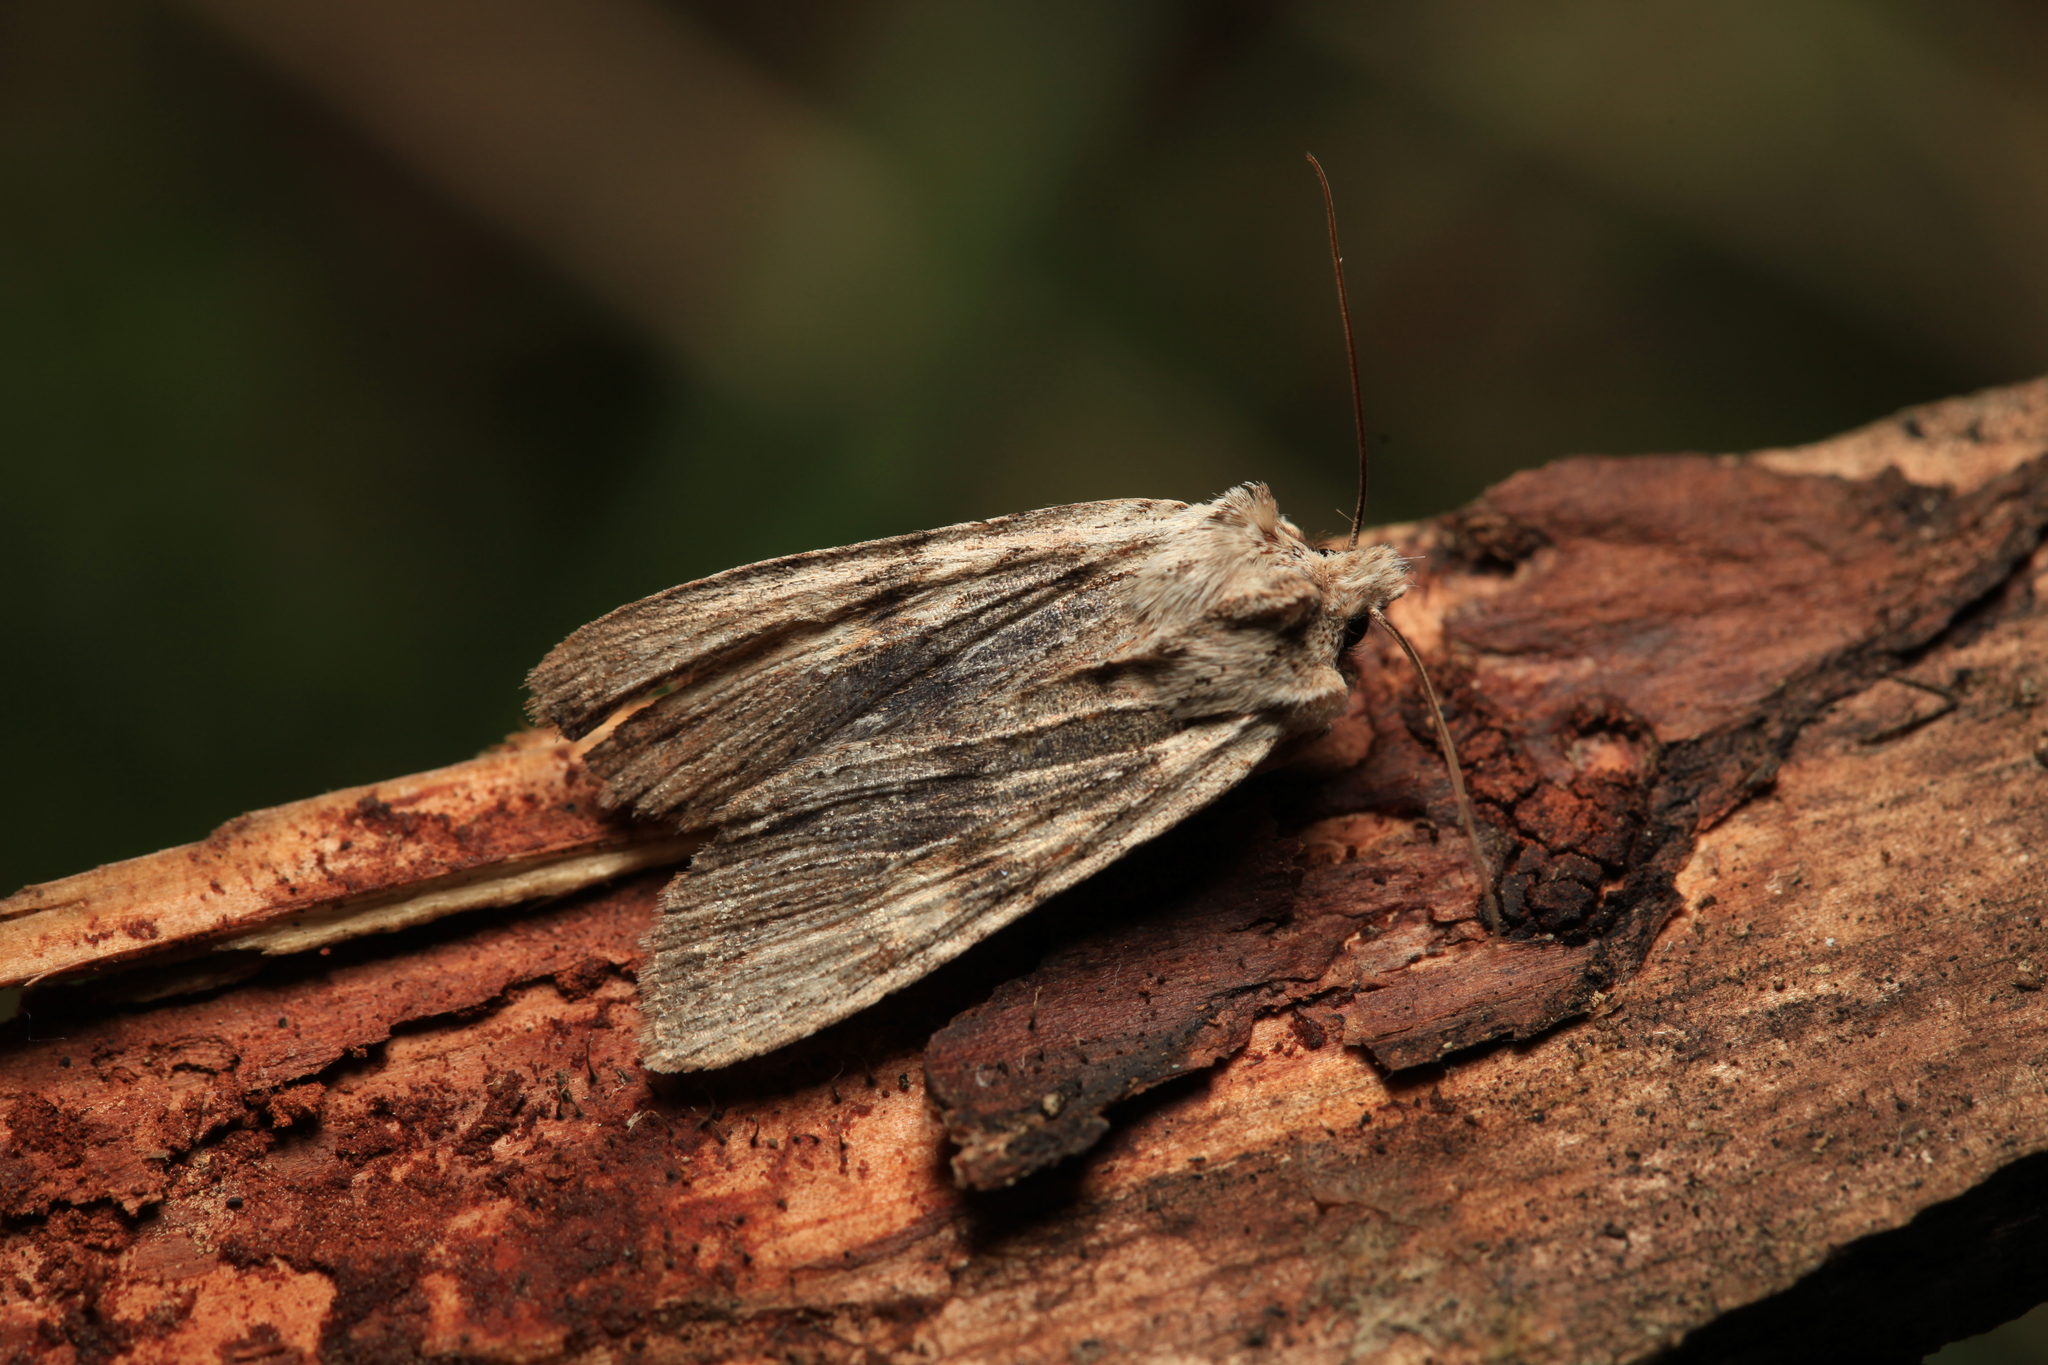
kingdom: Animalia
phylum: Arthropoda
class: Insecta
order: Lepidoptera
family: Noctuidae
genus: Lithophane
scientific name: Lithophane socia
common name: Pale pinion
